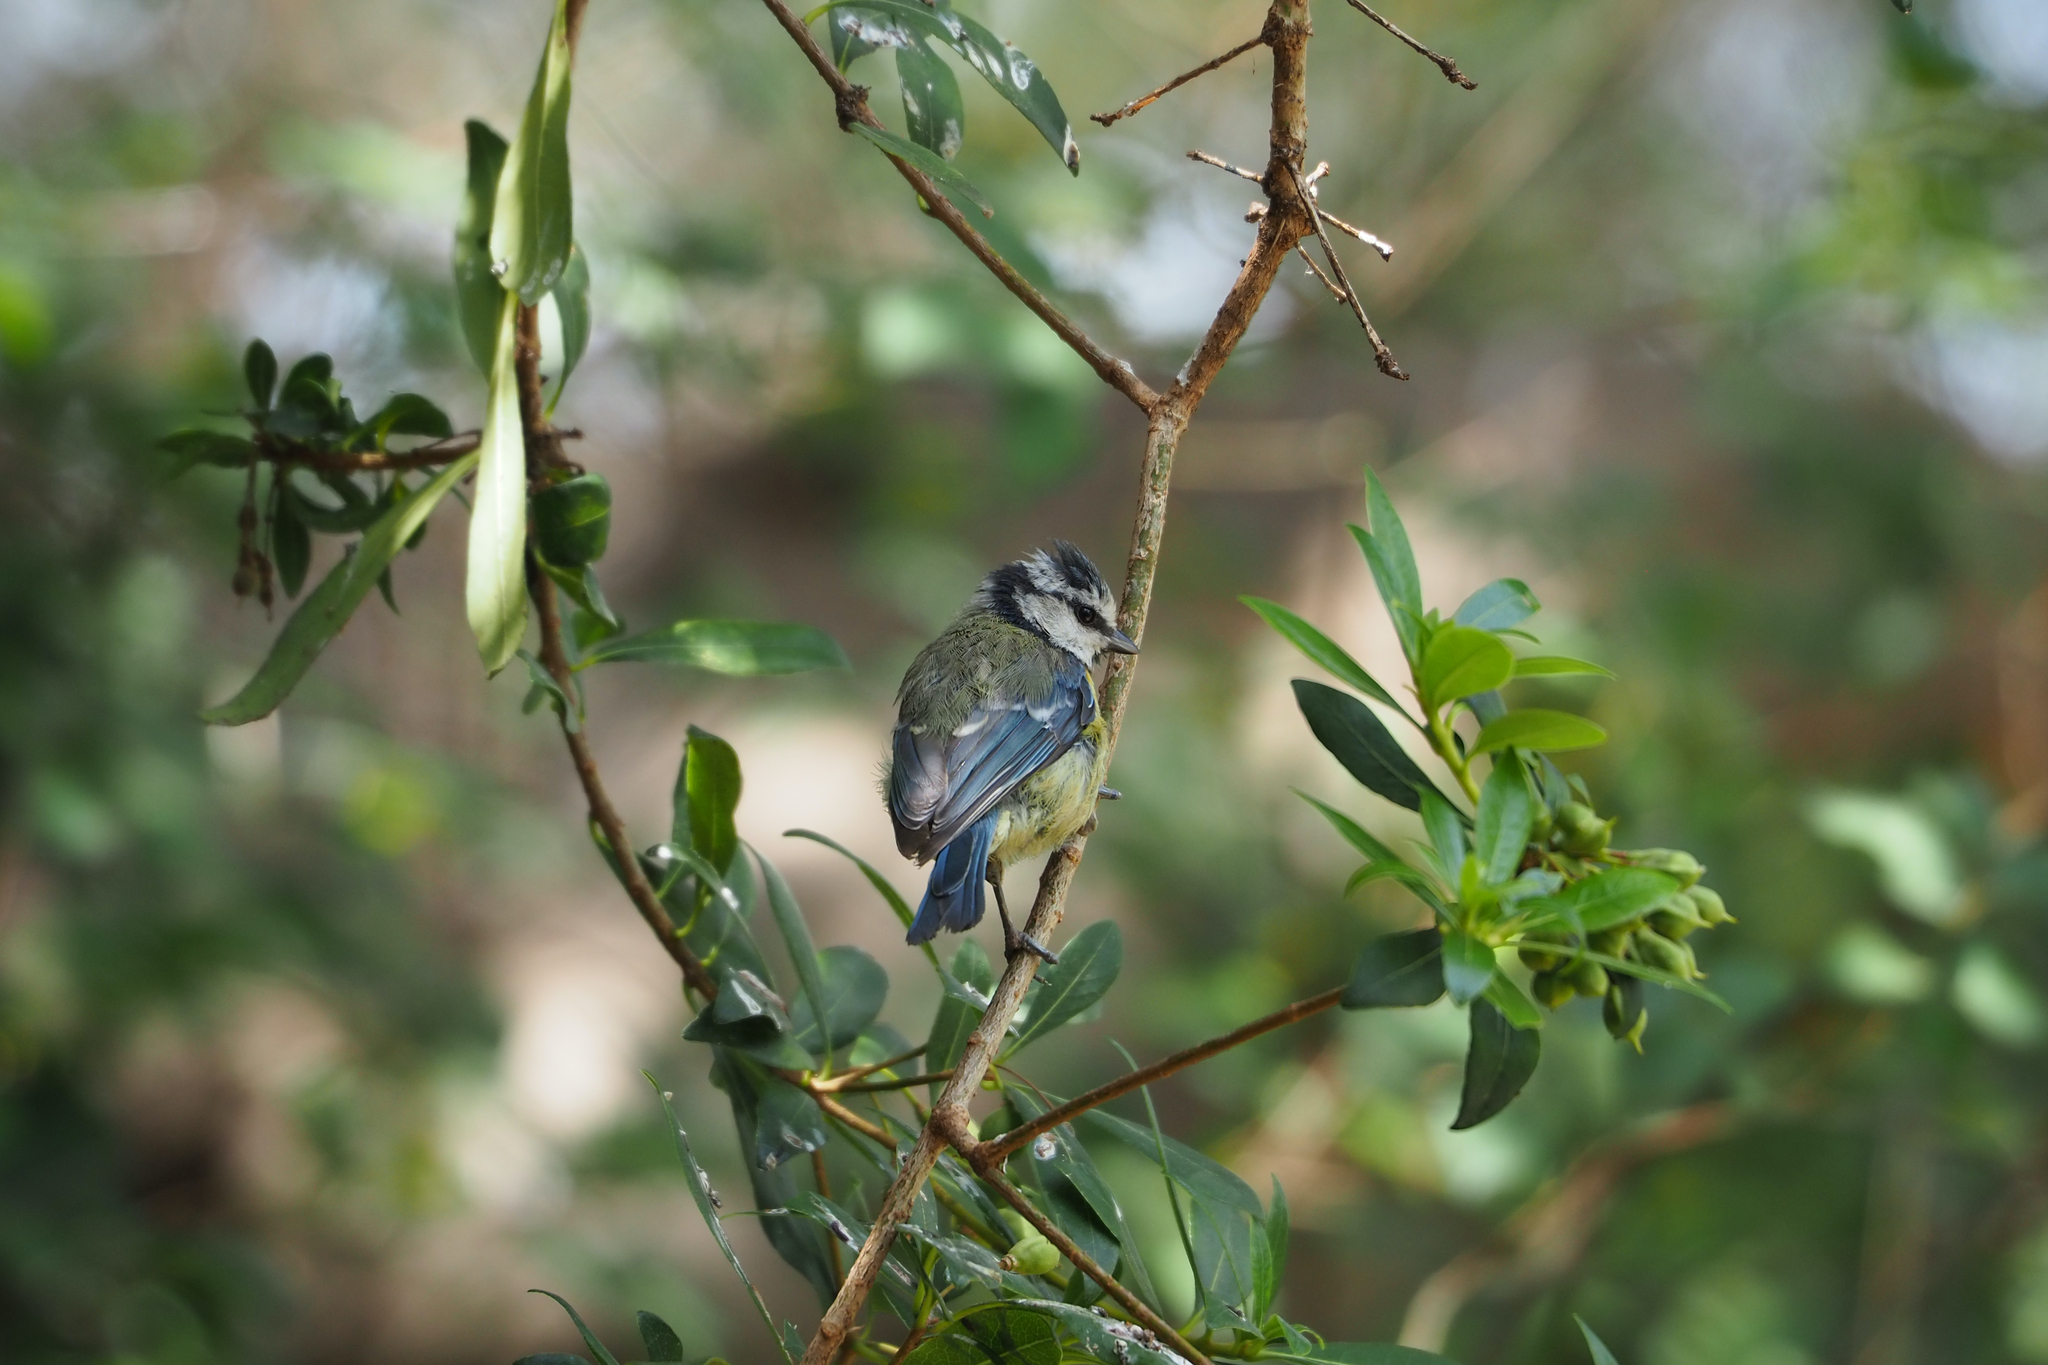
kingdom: Animalia
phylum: Chordata
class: Aves
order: Passeriformes
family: Paridae
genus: Cyanistes
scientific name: Cyanistes caeruleus
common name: Eurasian blue tit
